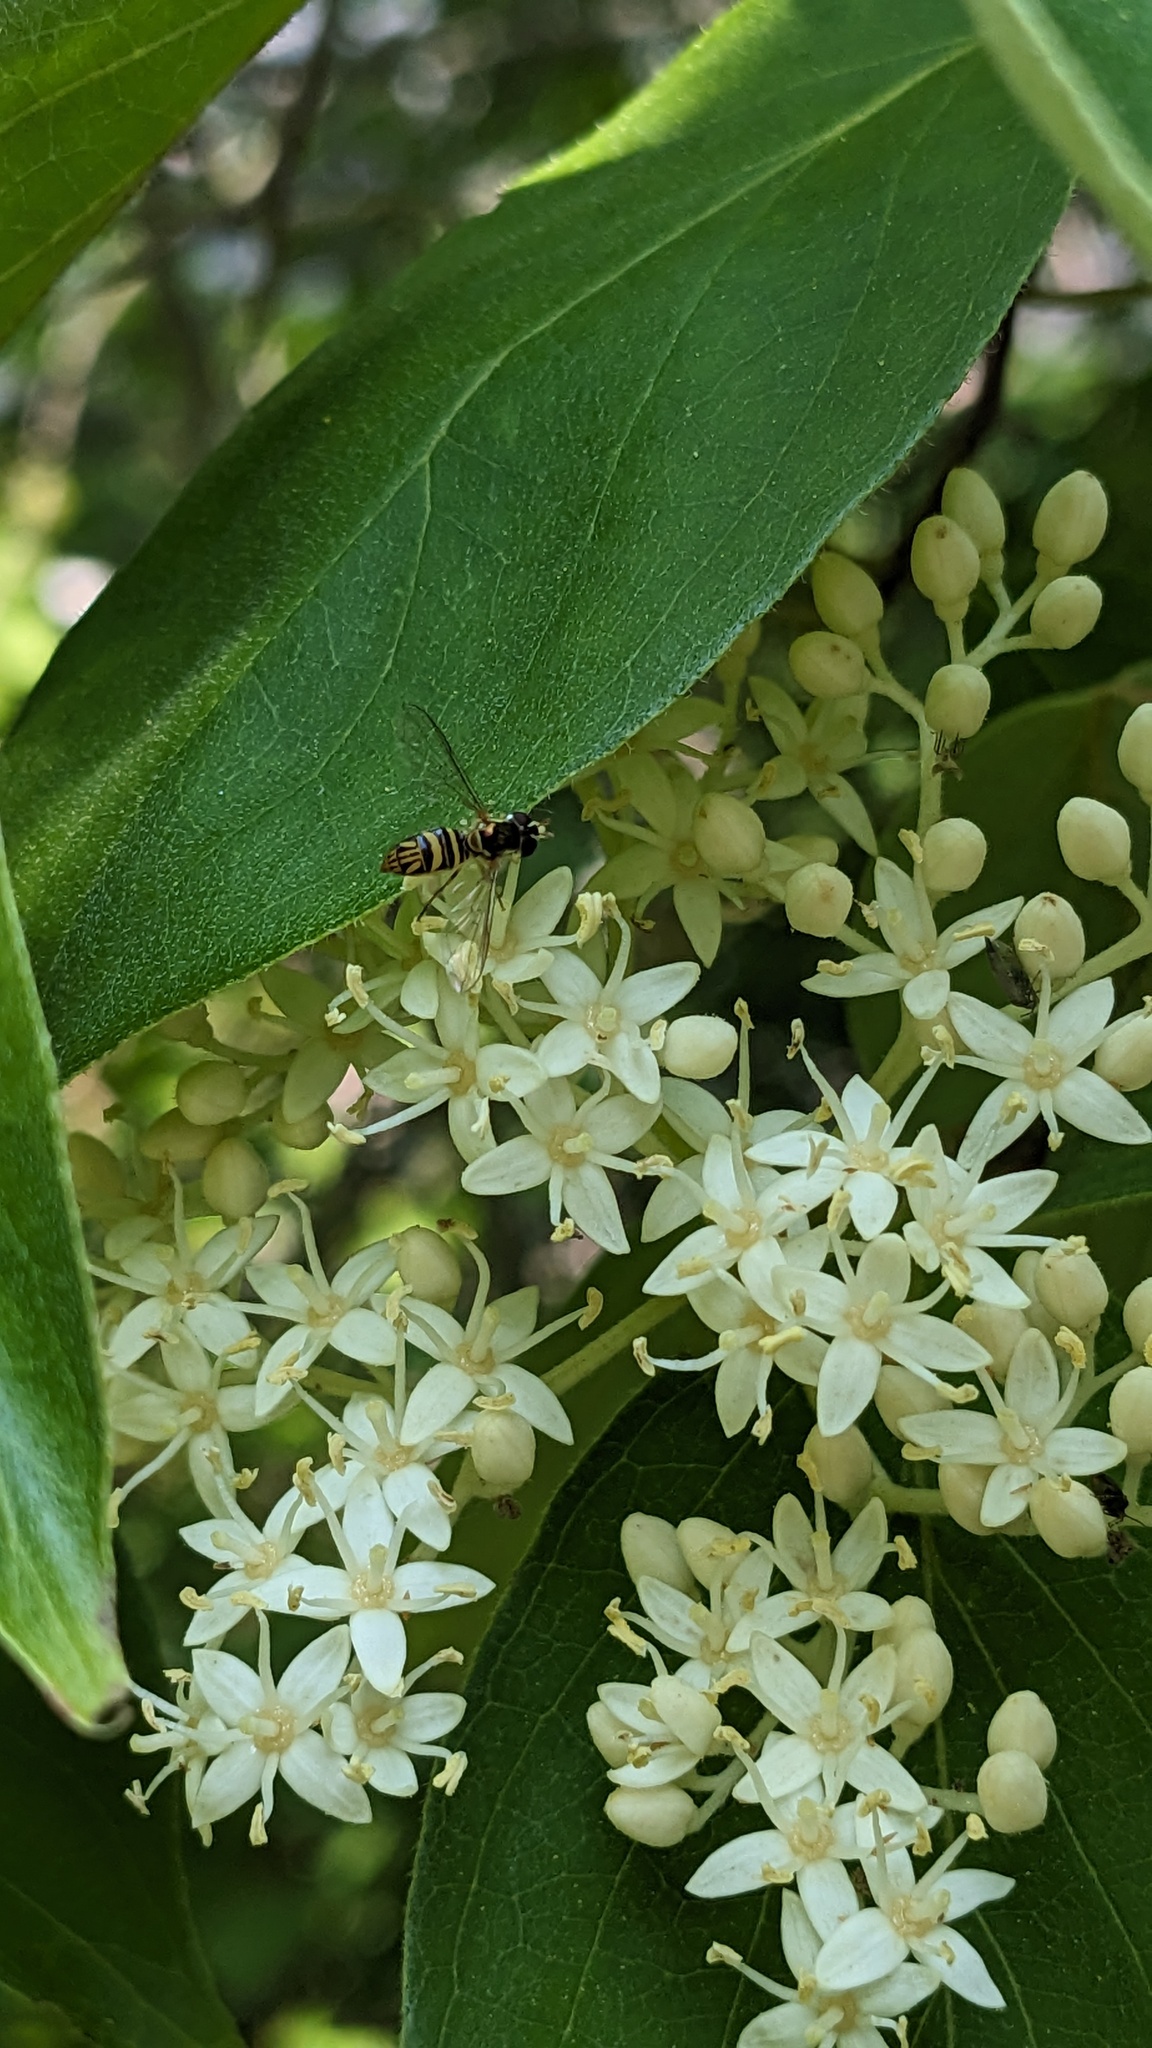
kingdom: Animalia
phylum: Arthropoda
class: Insecta
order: Diptera
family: Syrphidae
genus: Allograpta
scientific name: Allograpta obliqua
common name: Common oblique syrphid
